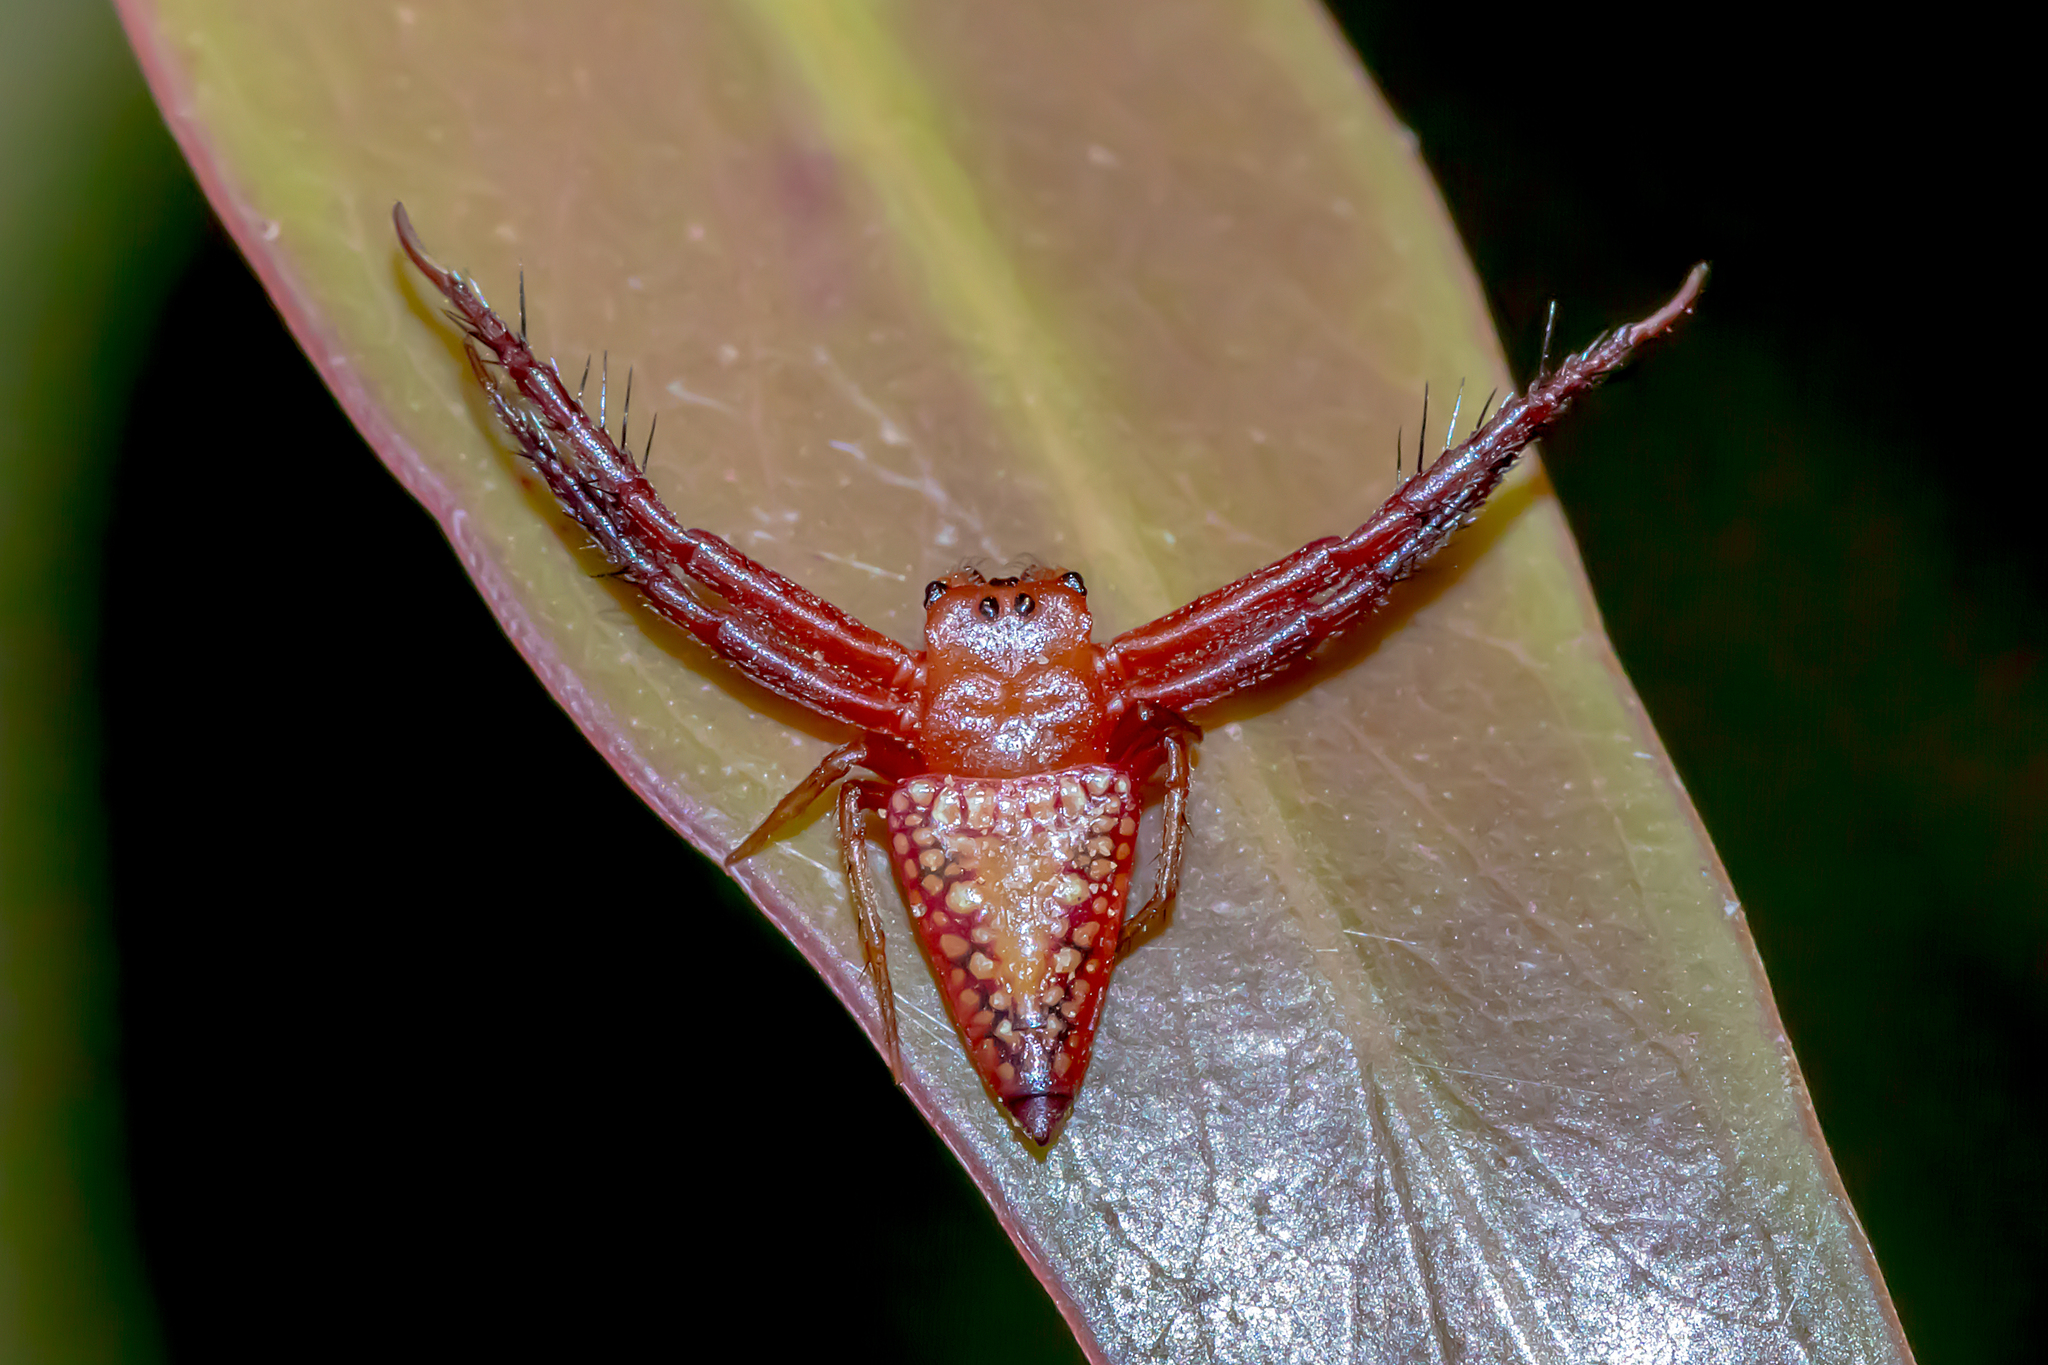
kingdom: Animalia
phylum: Arthropoda
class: Arachnida
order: Araneae
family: Arkyidae
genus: Arkys
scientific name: Arkys walckenaeri
